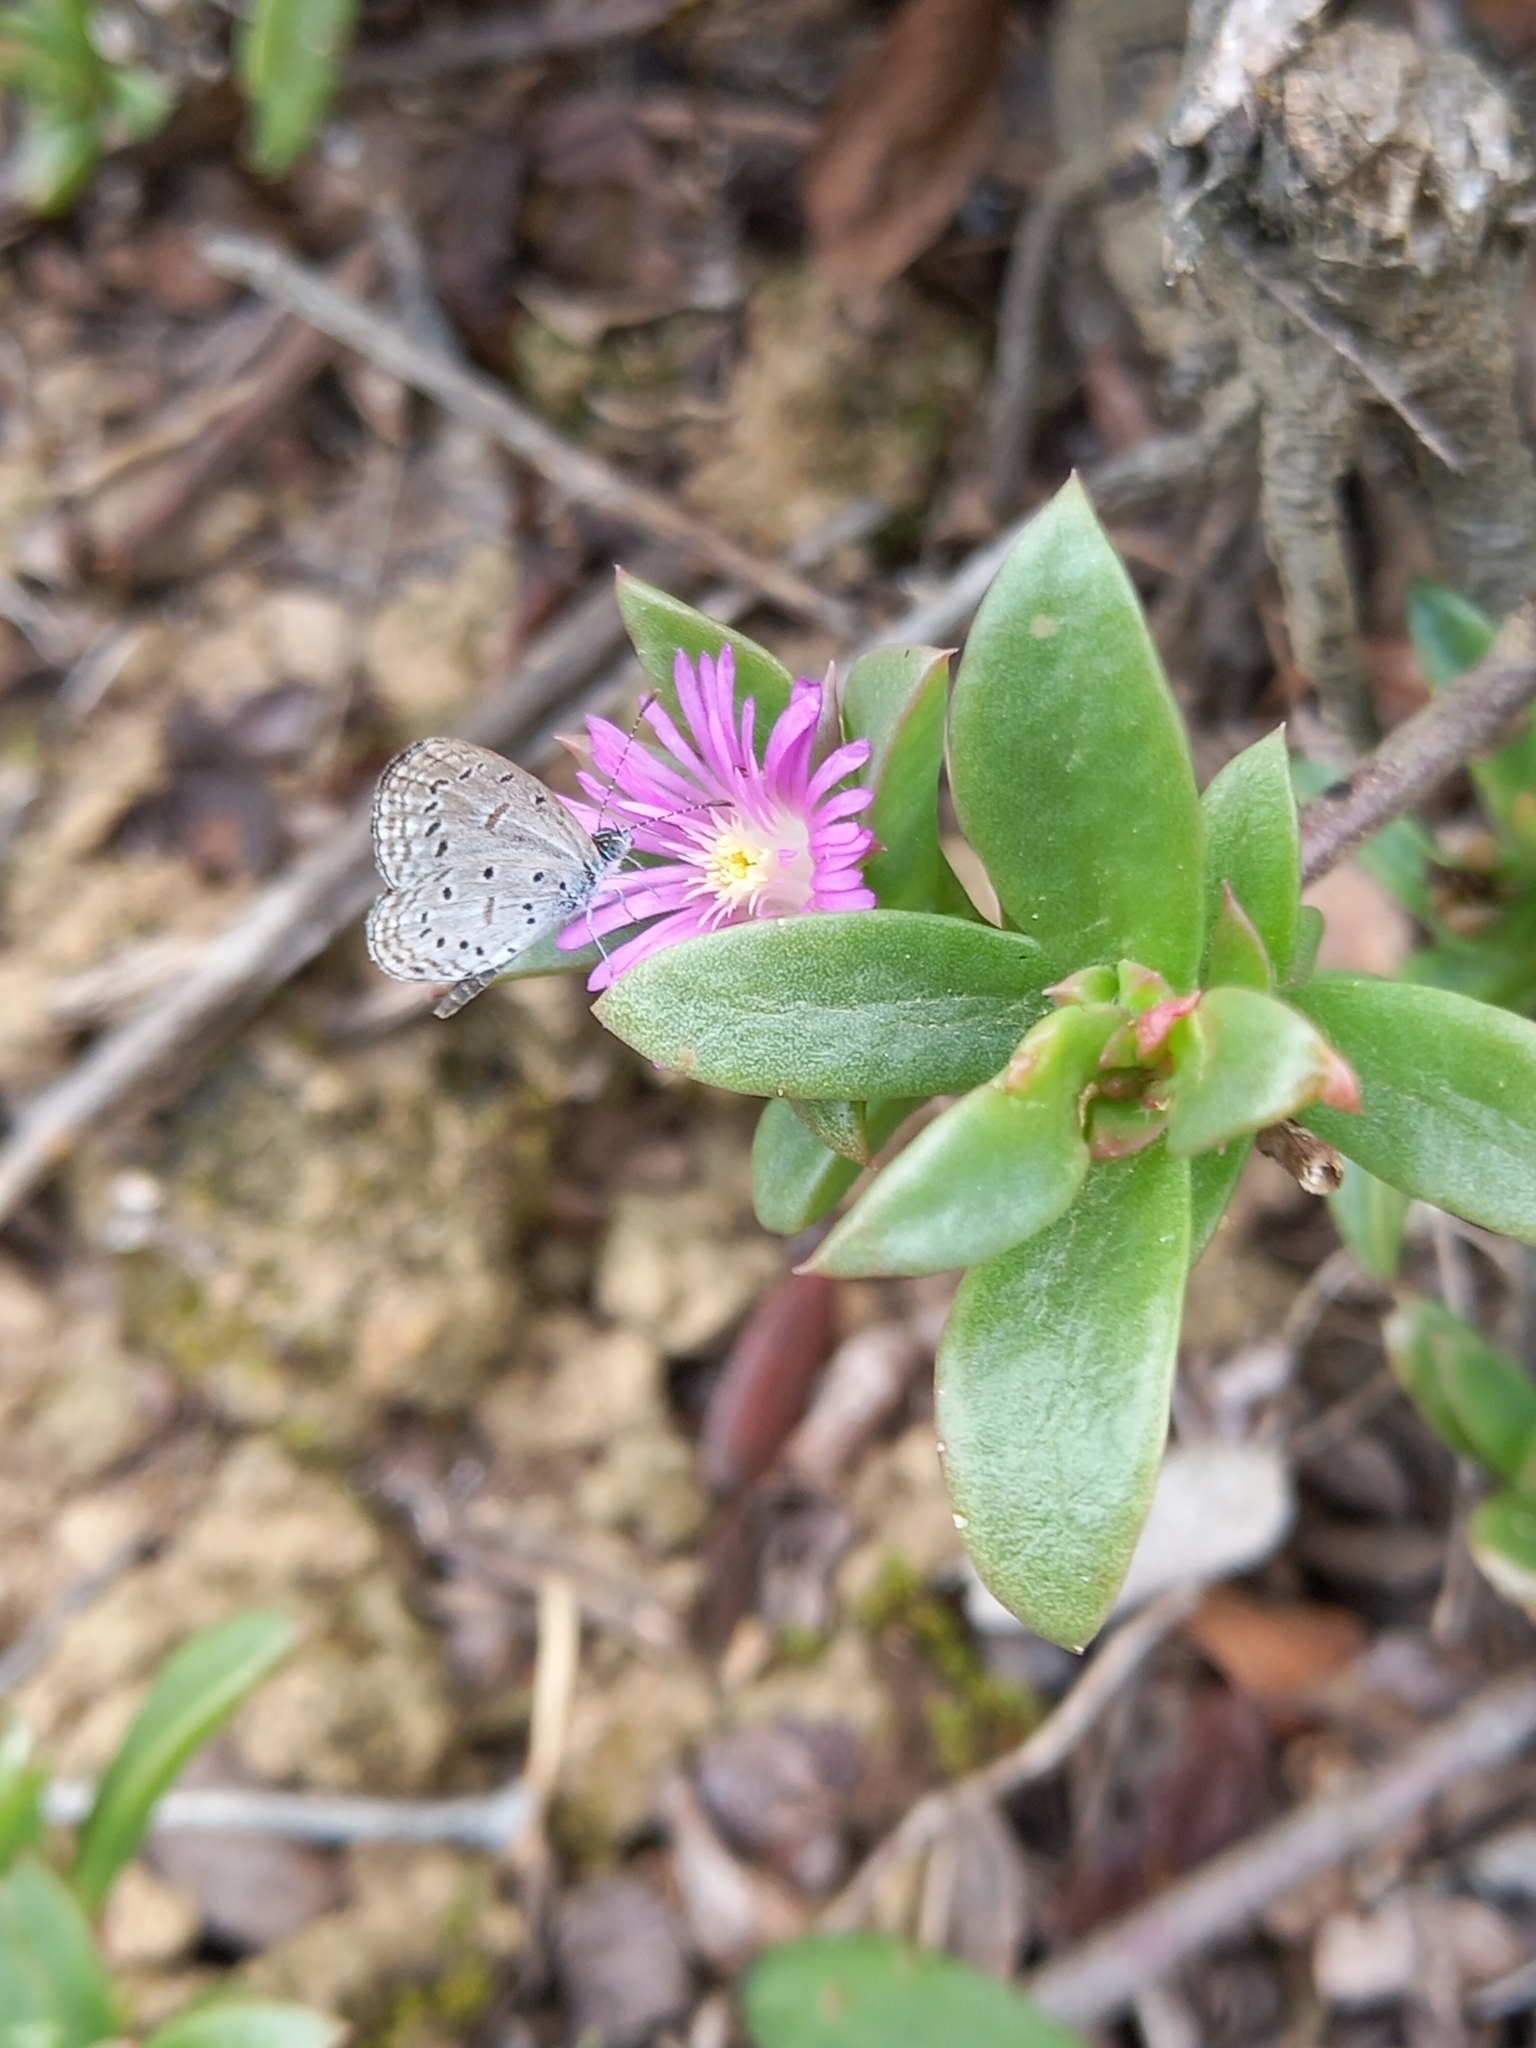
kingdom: Animalia
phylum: Arthropoda
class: Insecta
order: Lepidoptera
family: Lycaenidae
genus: Zizula
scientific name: Zizula hylax
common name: Gaika blue
